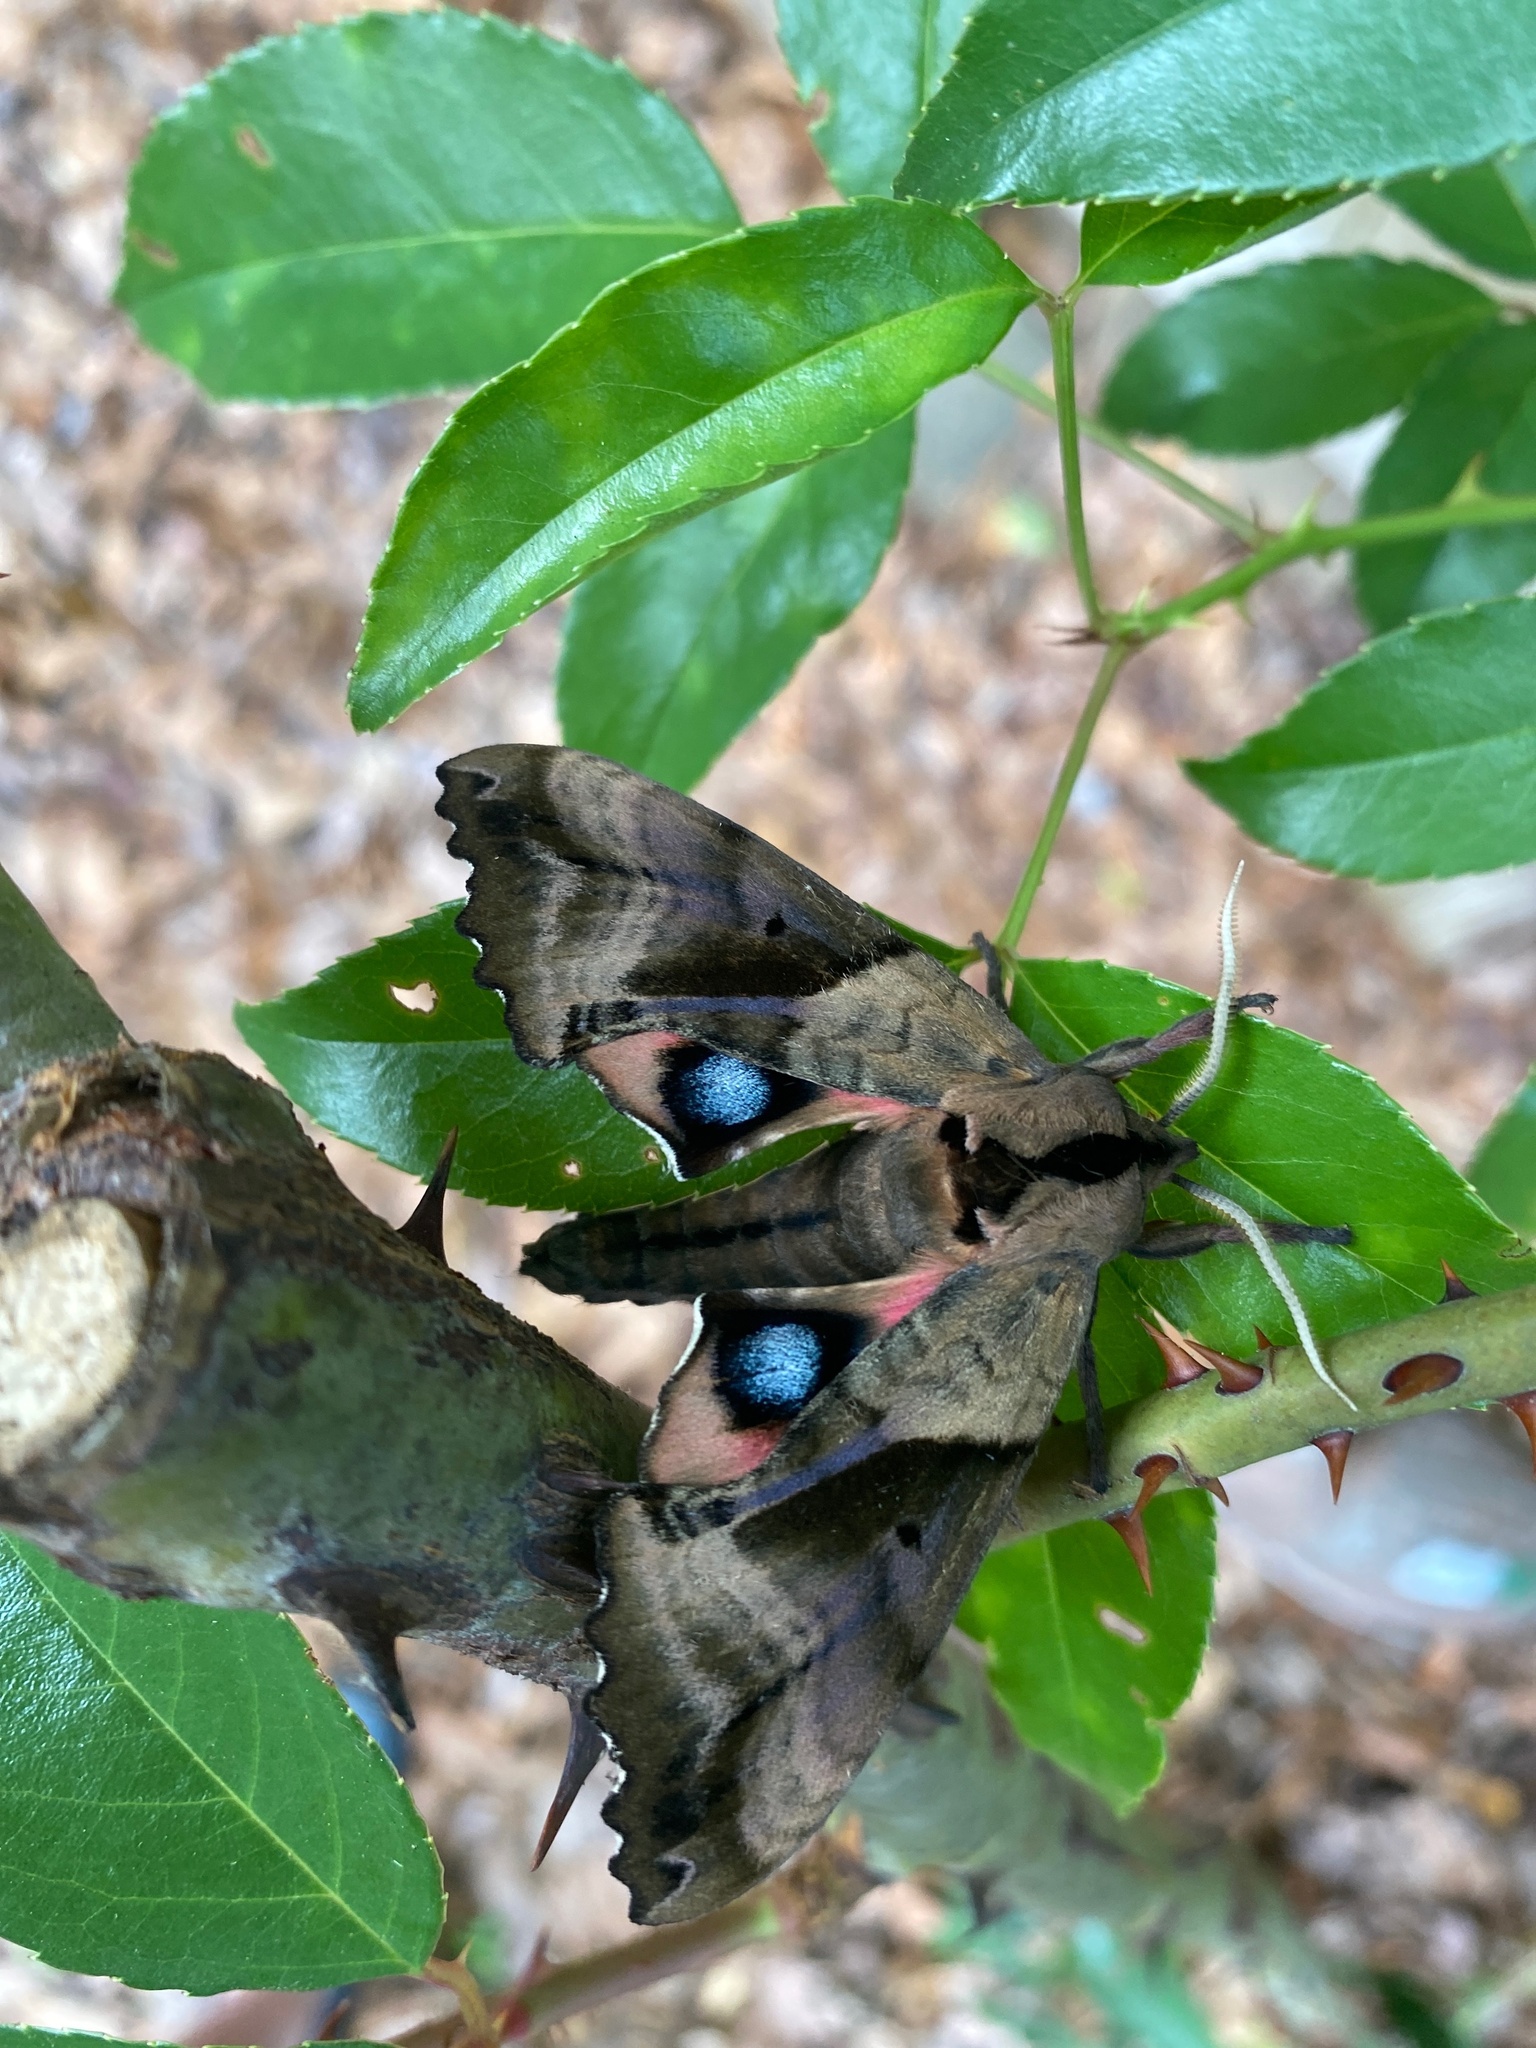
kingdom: Animalia
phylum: Arthropoda
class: Insecta
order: Lepidoptera
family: Sphingidae
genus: Paonias
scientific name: Paonias excaecata
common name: Blind-eyed sphinx
